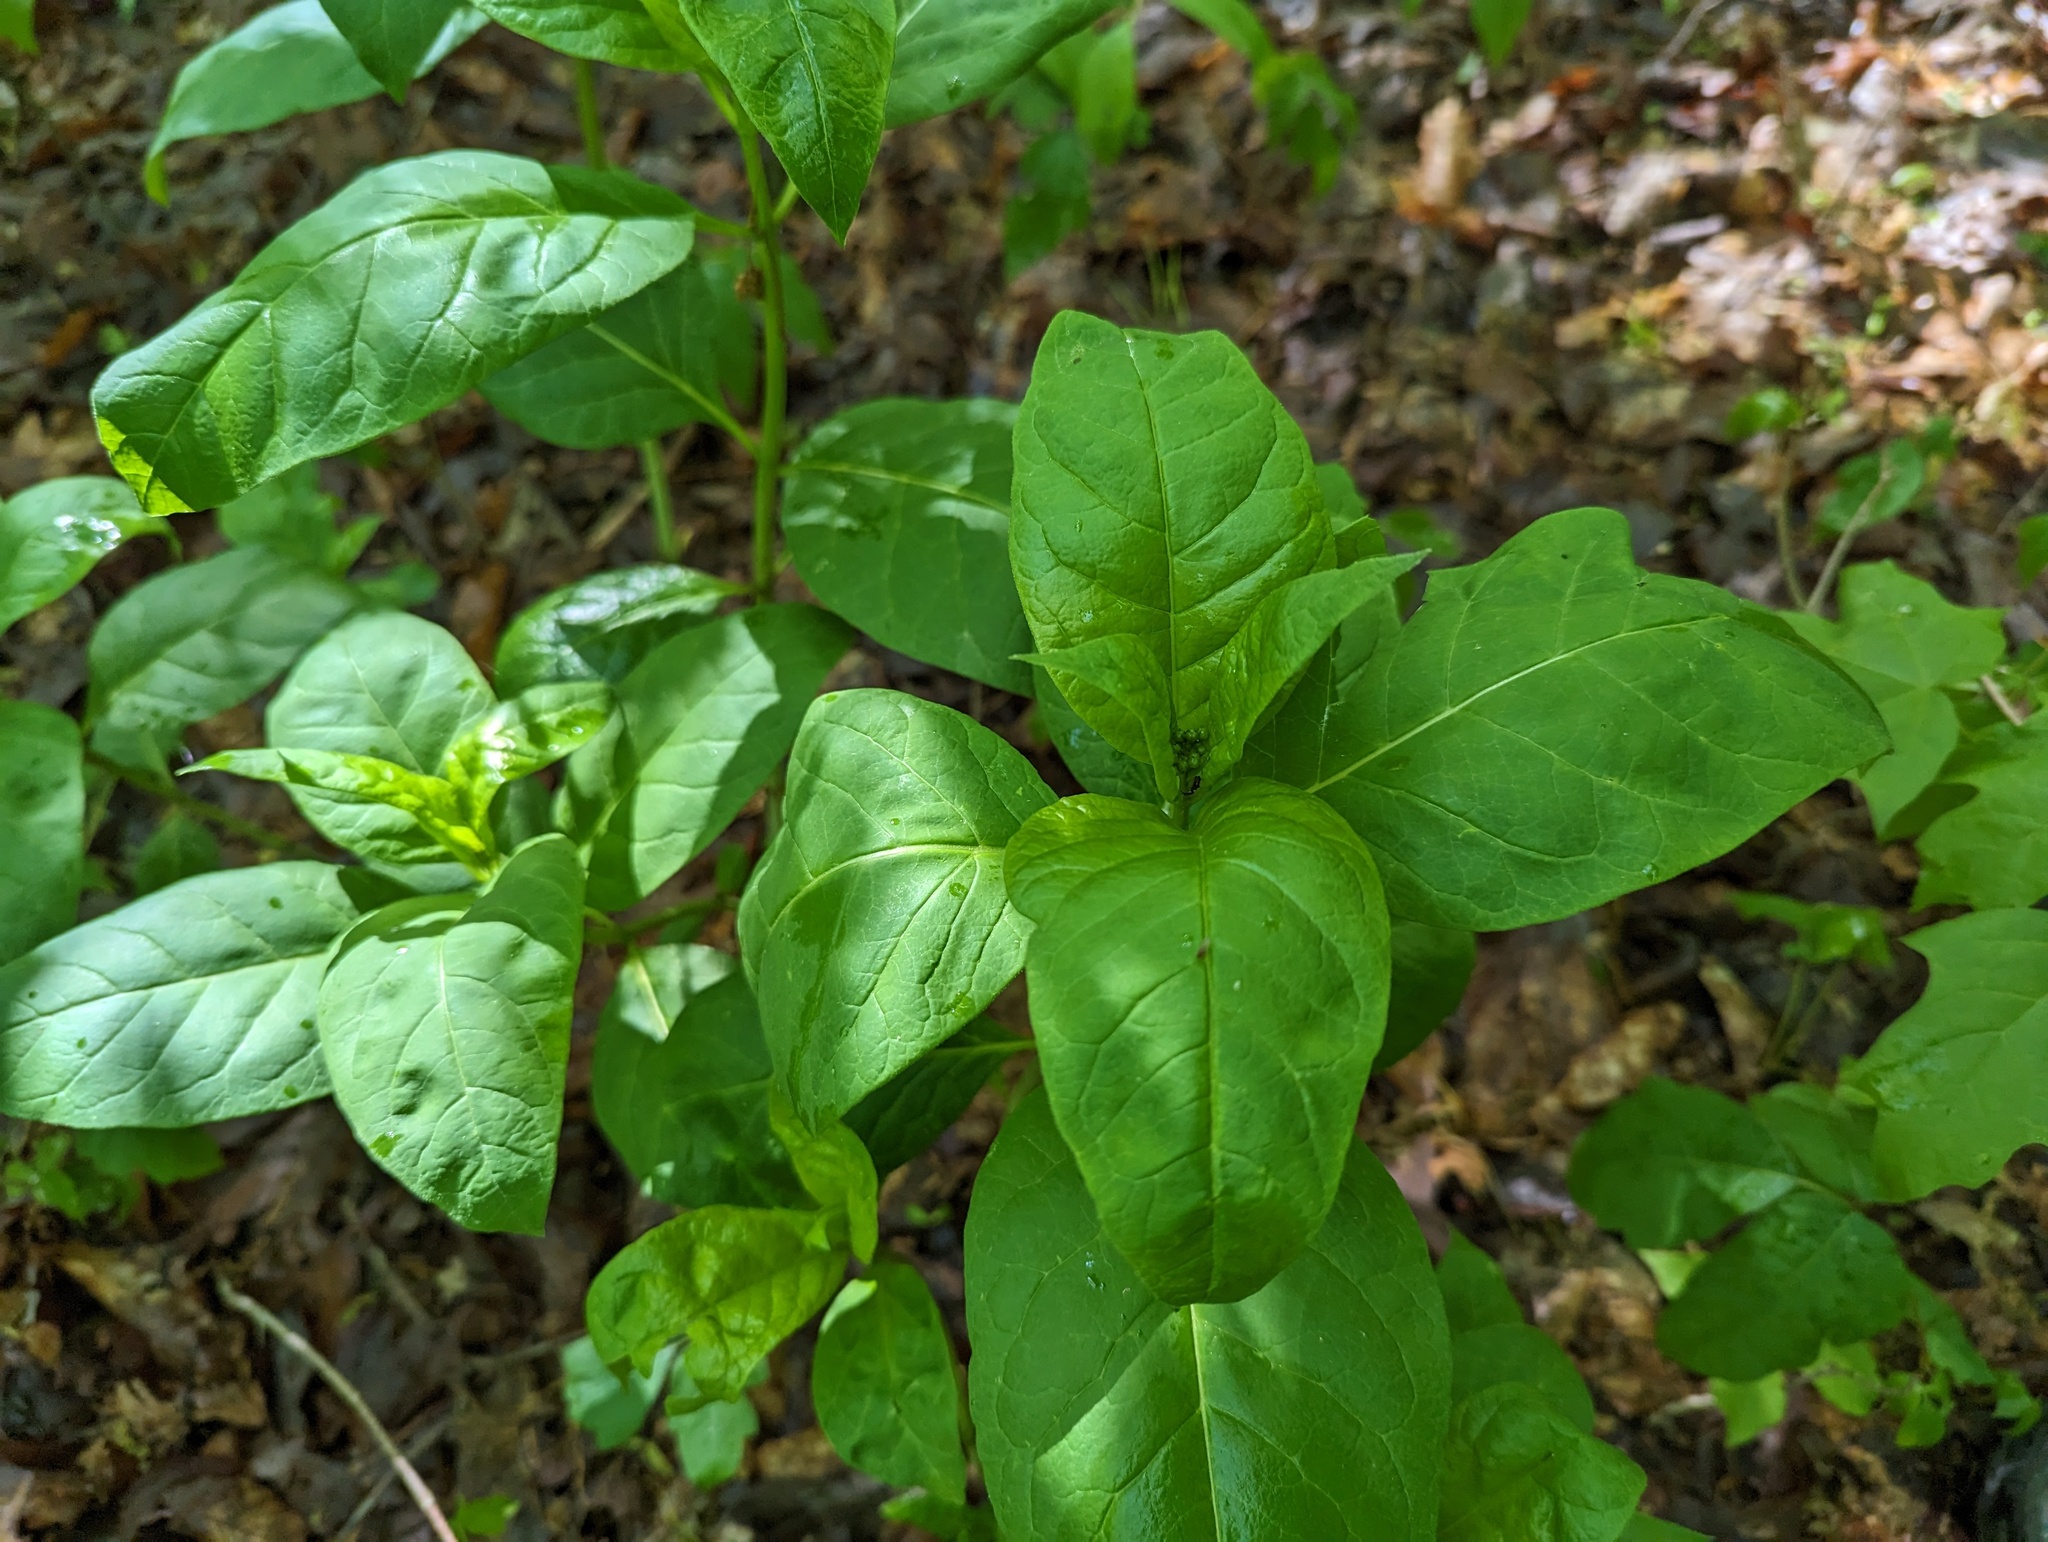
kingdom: Plantae
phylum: Tracheophyta
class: Magnoliopsida
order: Gentianales
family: Apocynaceae
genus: Asclepias
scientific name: Asclepias exaltata
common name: Poke milkweed
